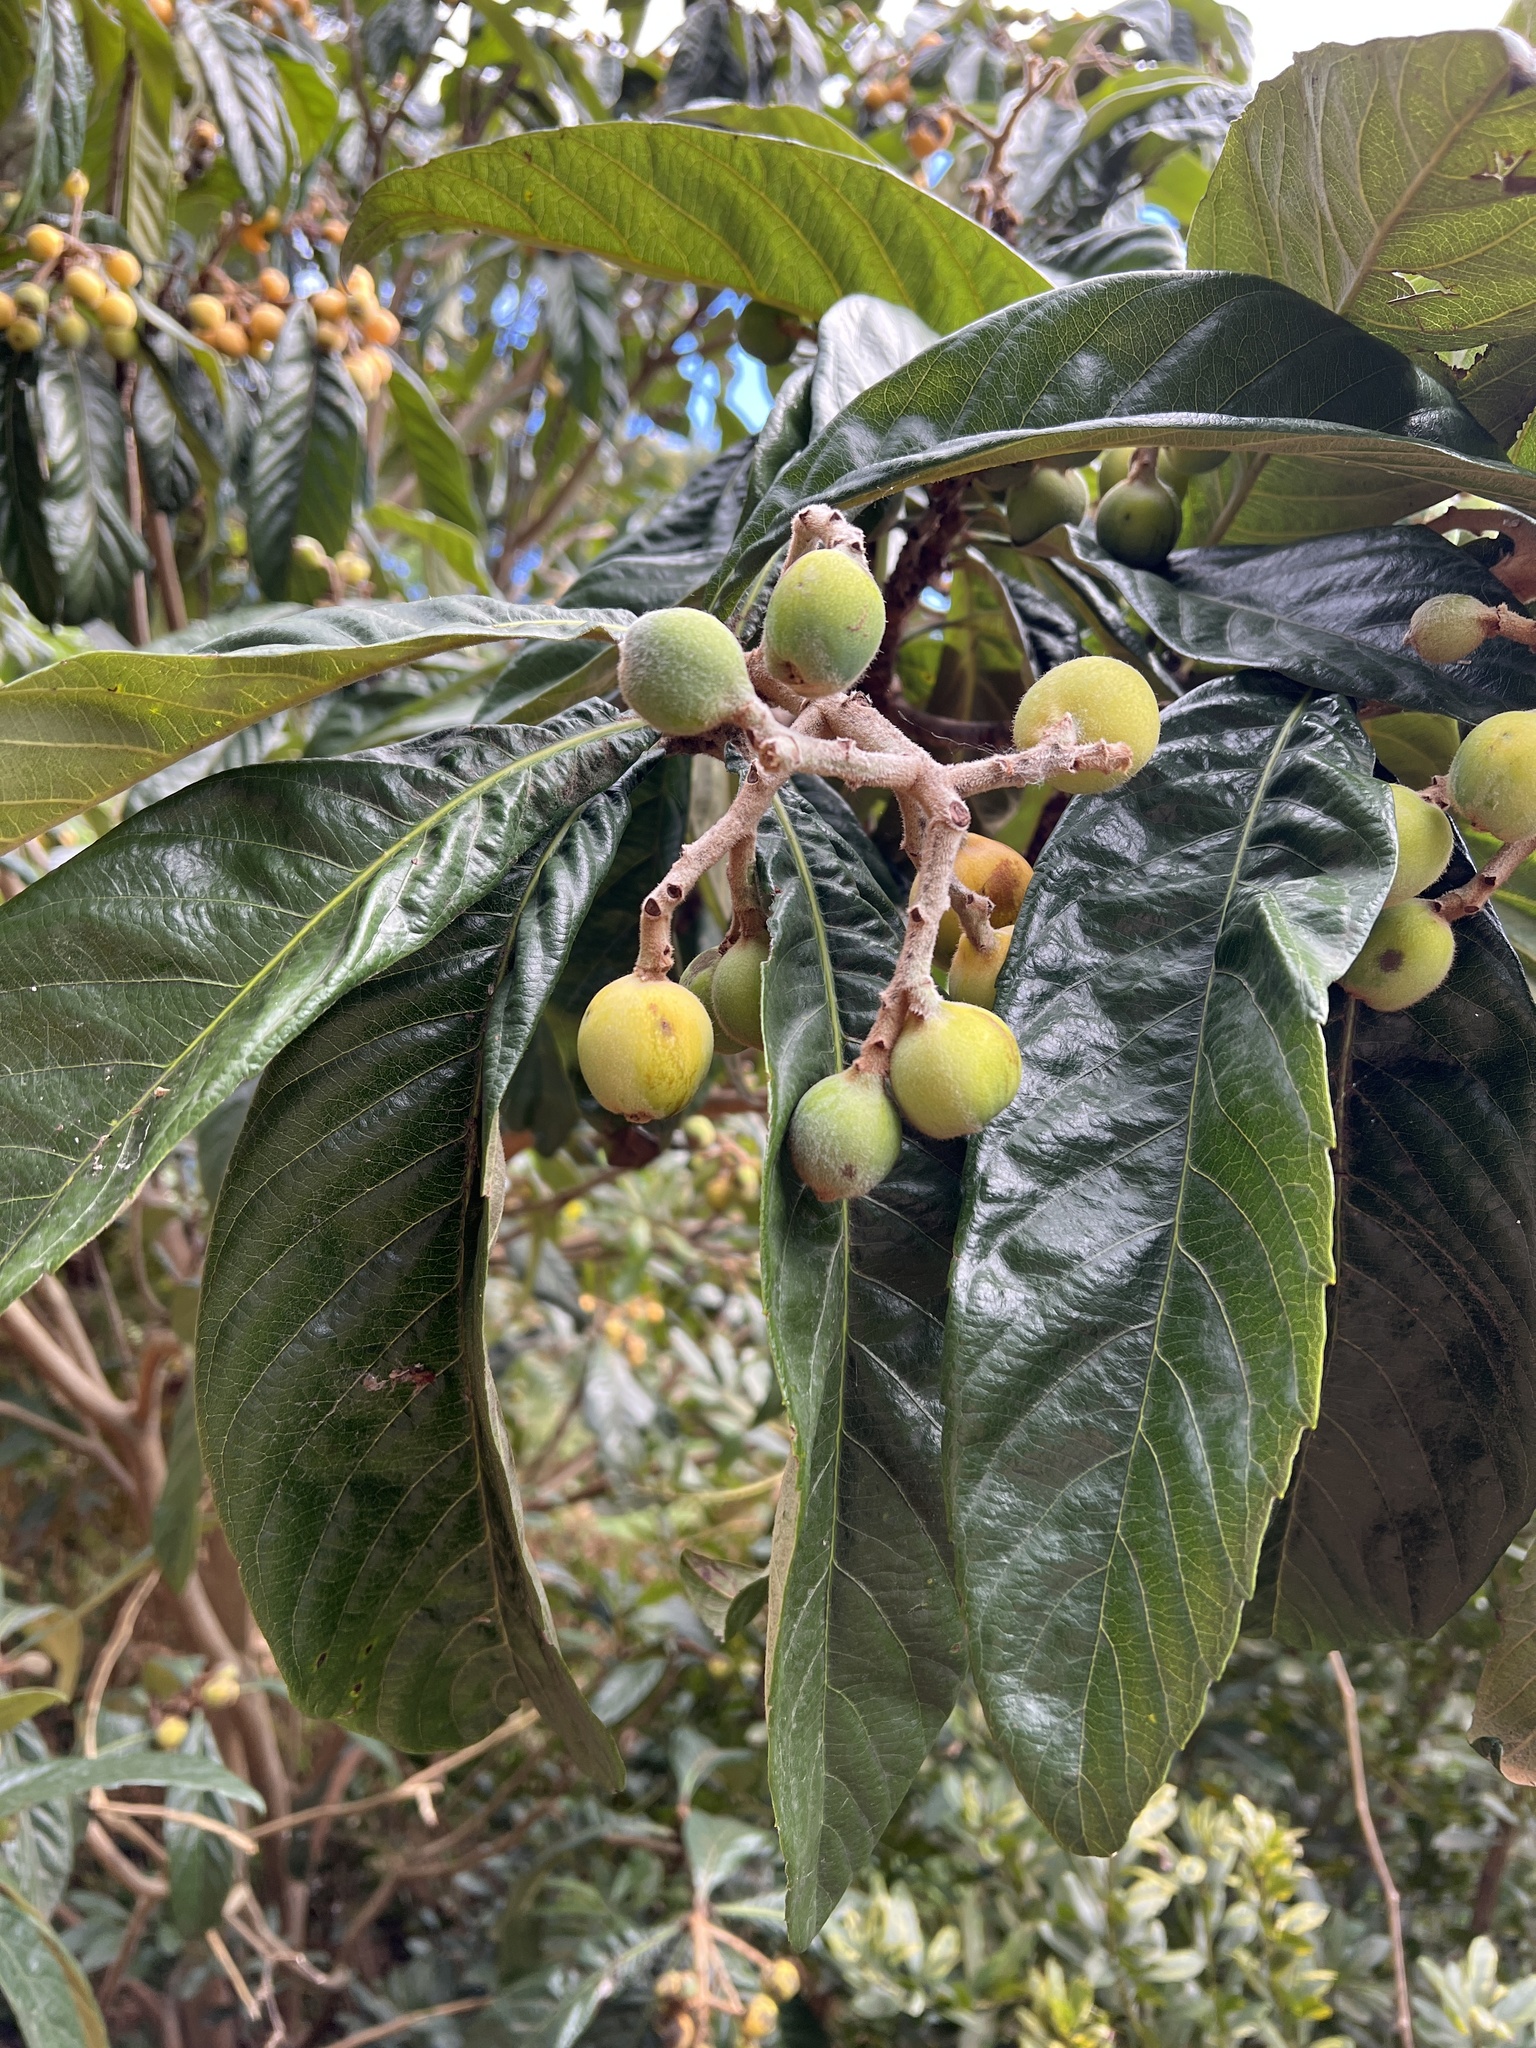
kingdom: Plantae
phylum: Tracheophyta
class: Magnoliopsida
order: Rosales
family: Rosaceae
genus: Rhaphiolepis
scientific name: Rhaphiolepis bibas
